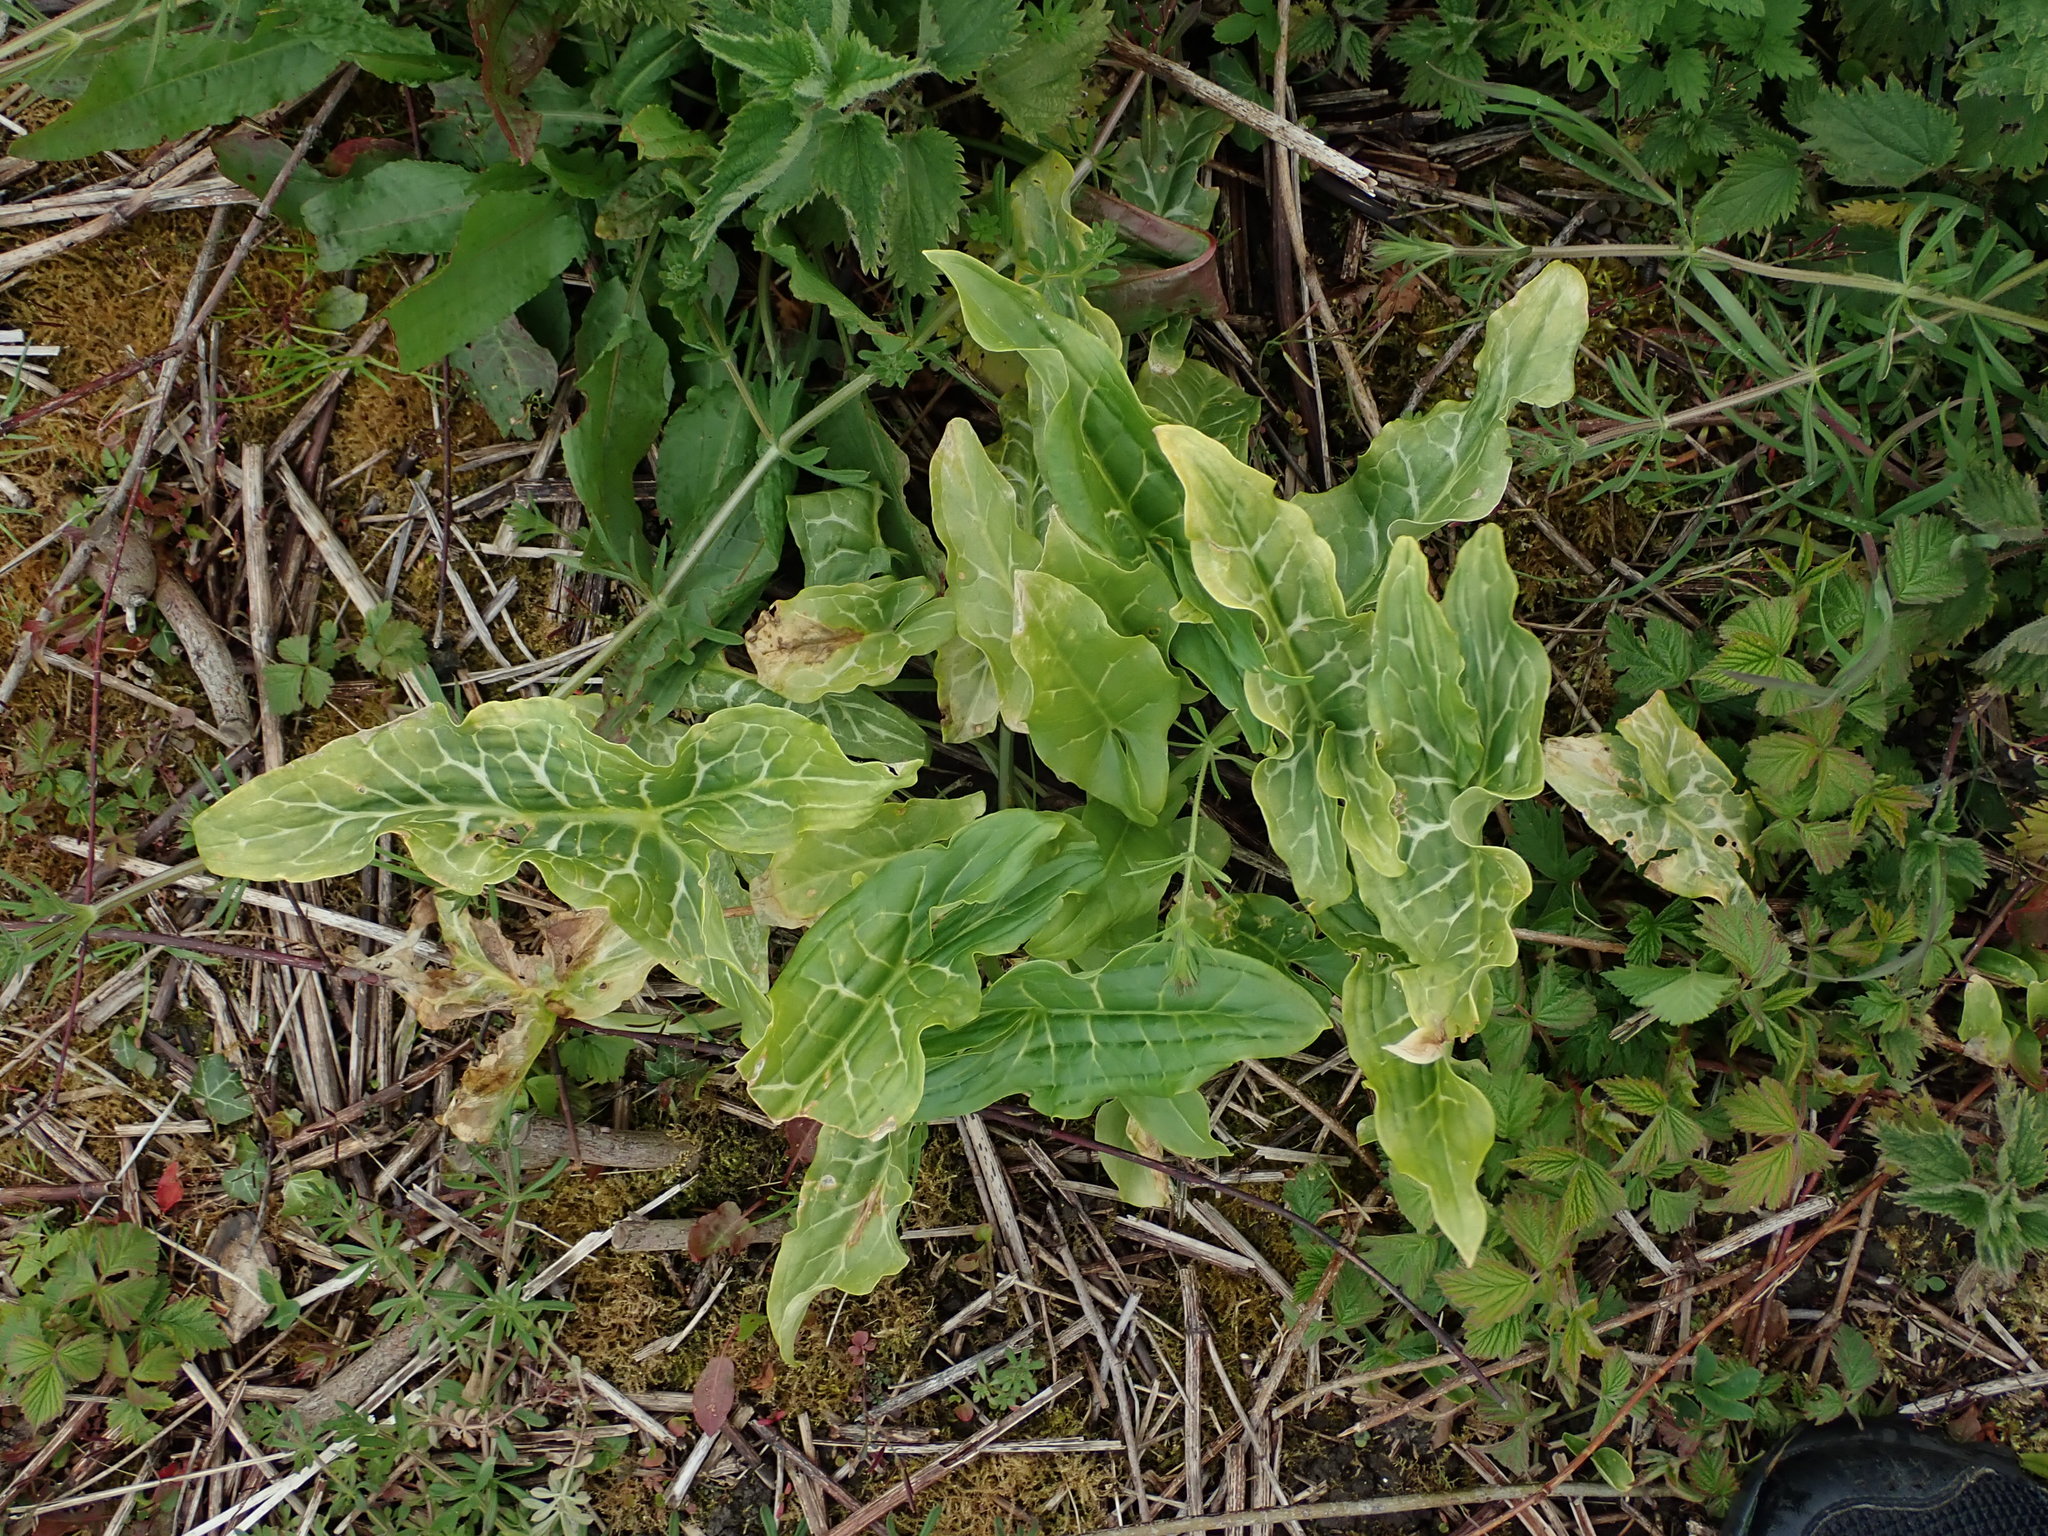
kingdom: Plantae
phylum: Tracheophyta
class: Liliopsida
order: Alismatales
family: Araceae
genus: Arum
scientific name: Arum italicum
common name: Italian lords-and-ladies
